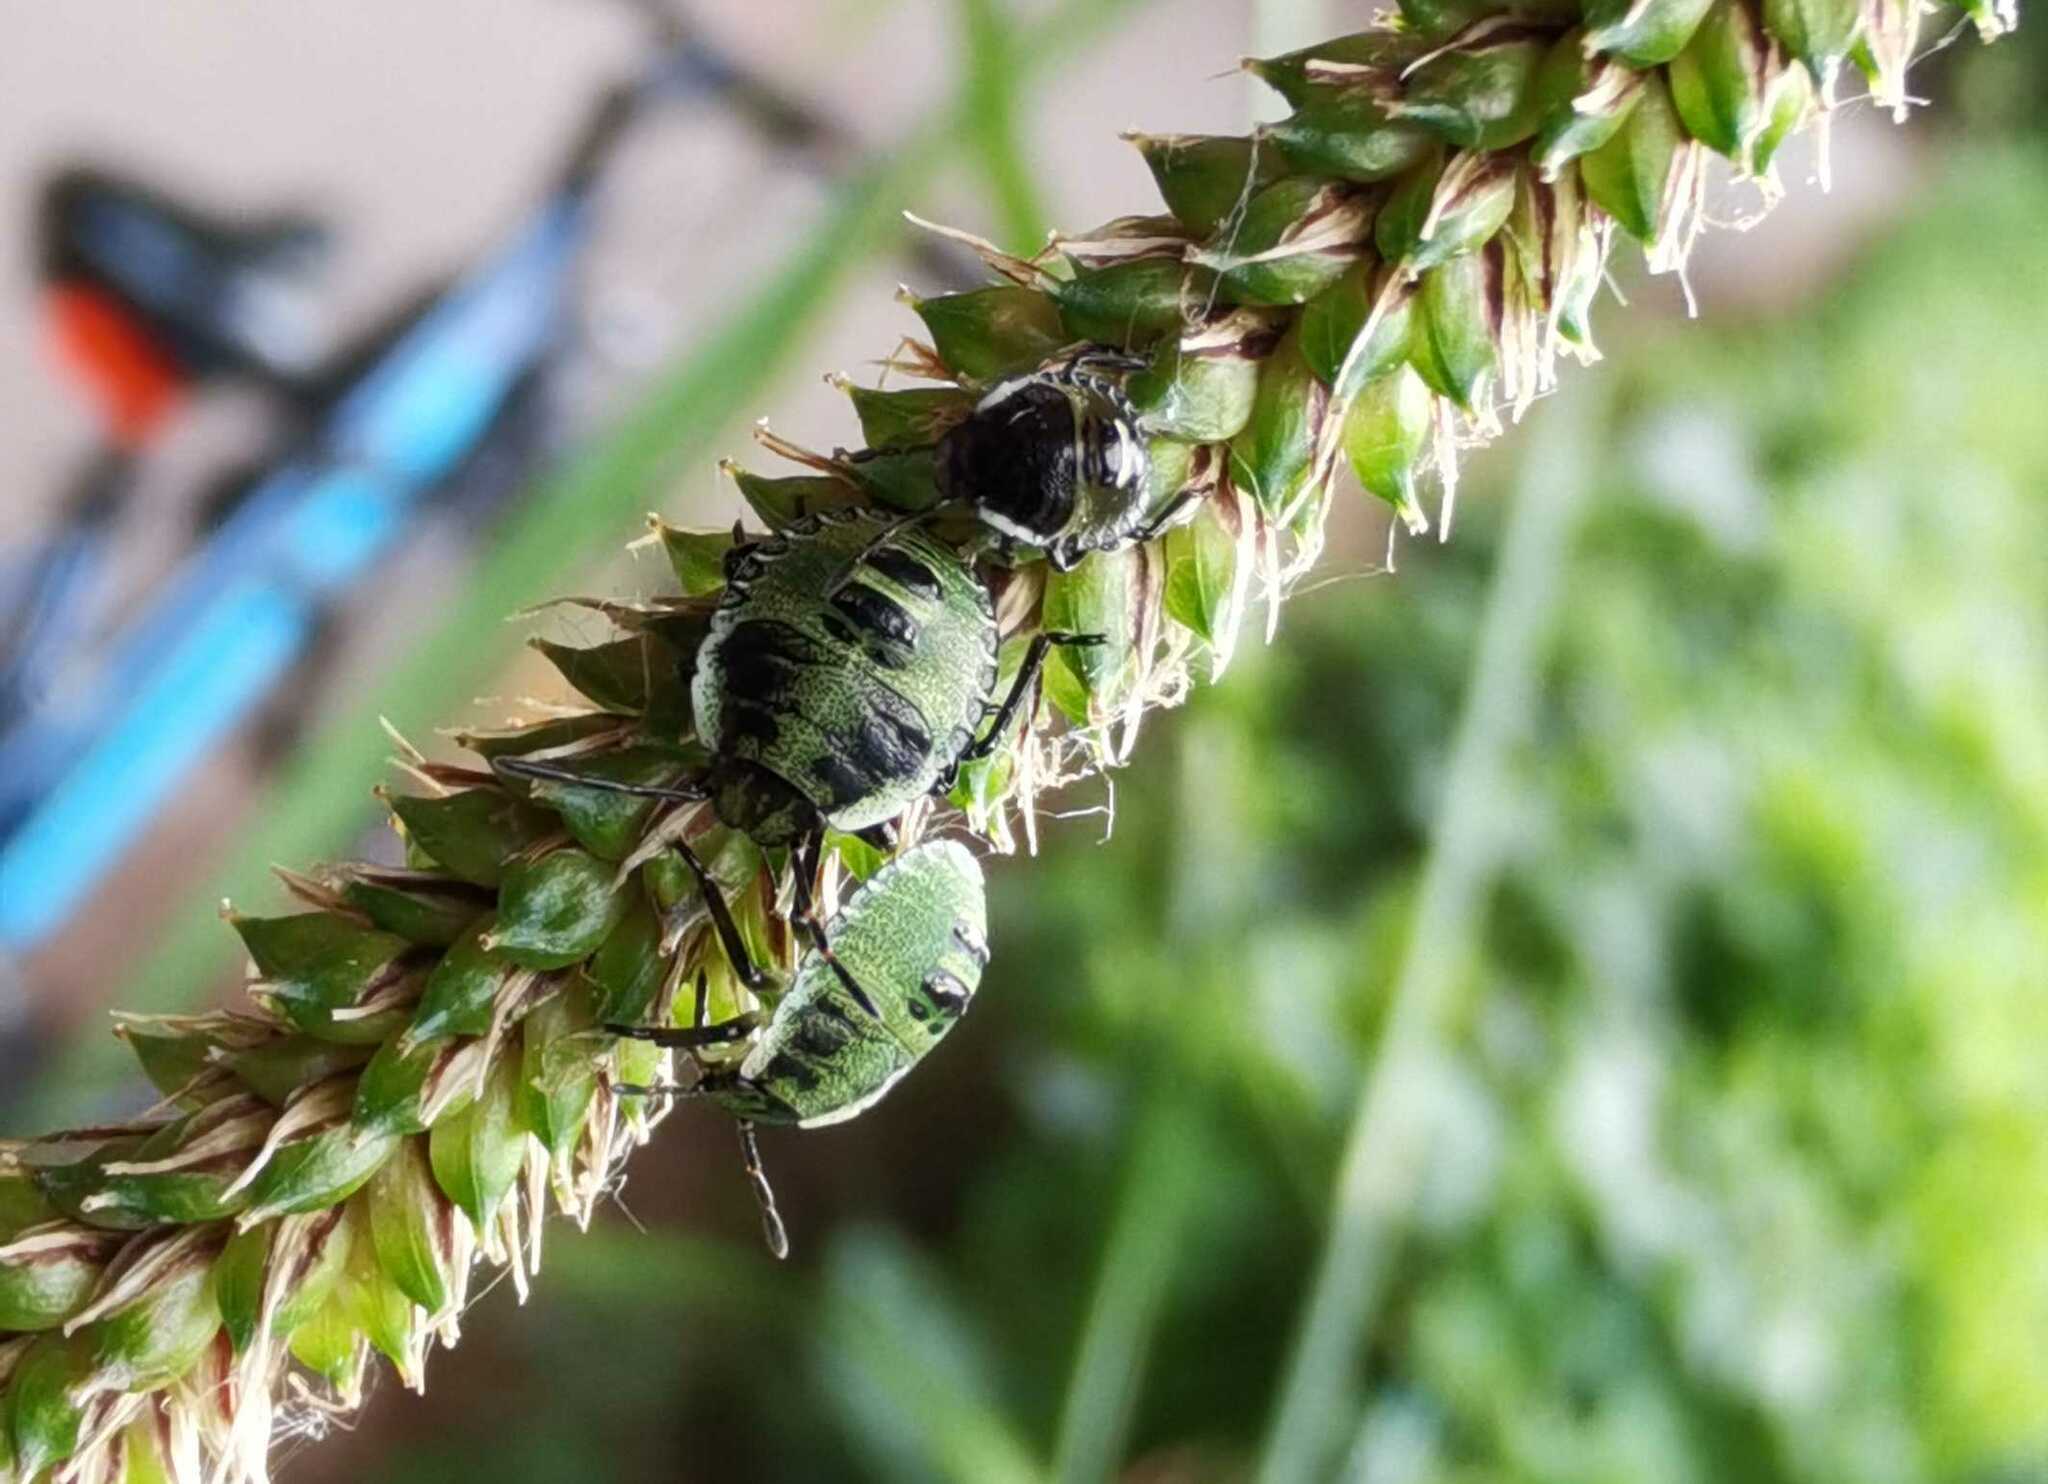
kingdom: Animalia
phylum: Arthropoda
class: Insecta
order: Hemiptera
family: Pentatomidae
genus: Palomena
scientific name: Palomena prasina
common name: Green shieldbug
